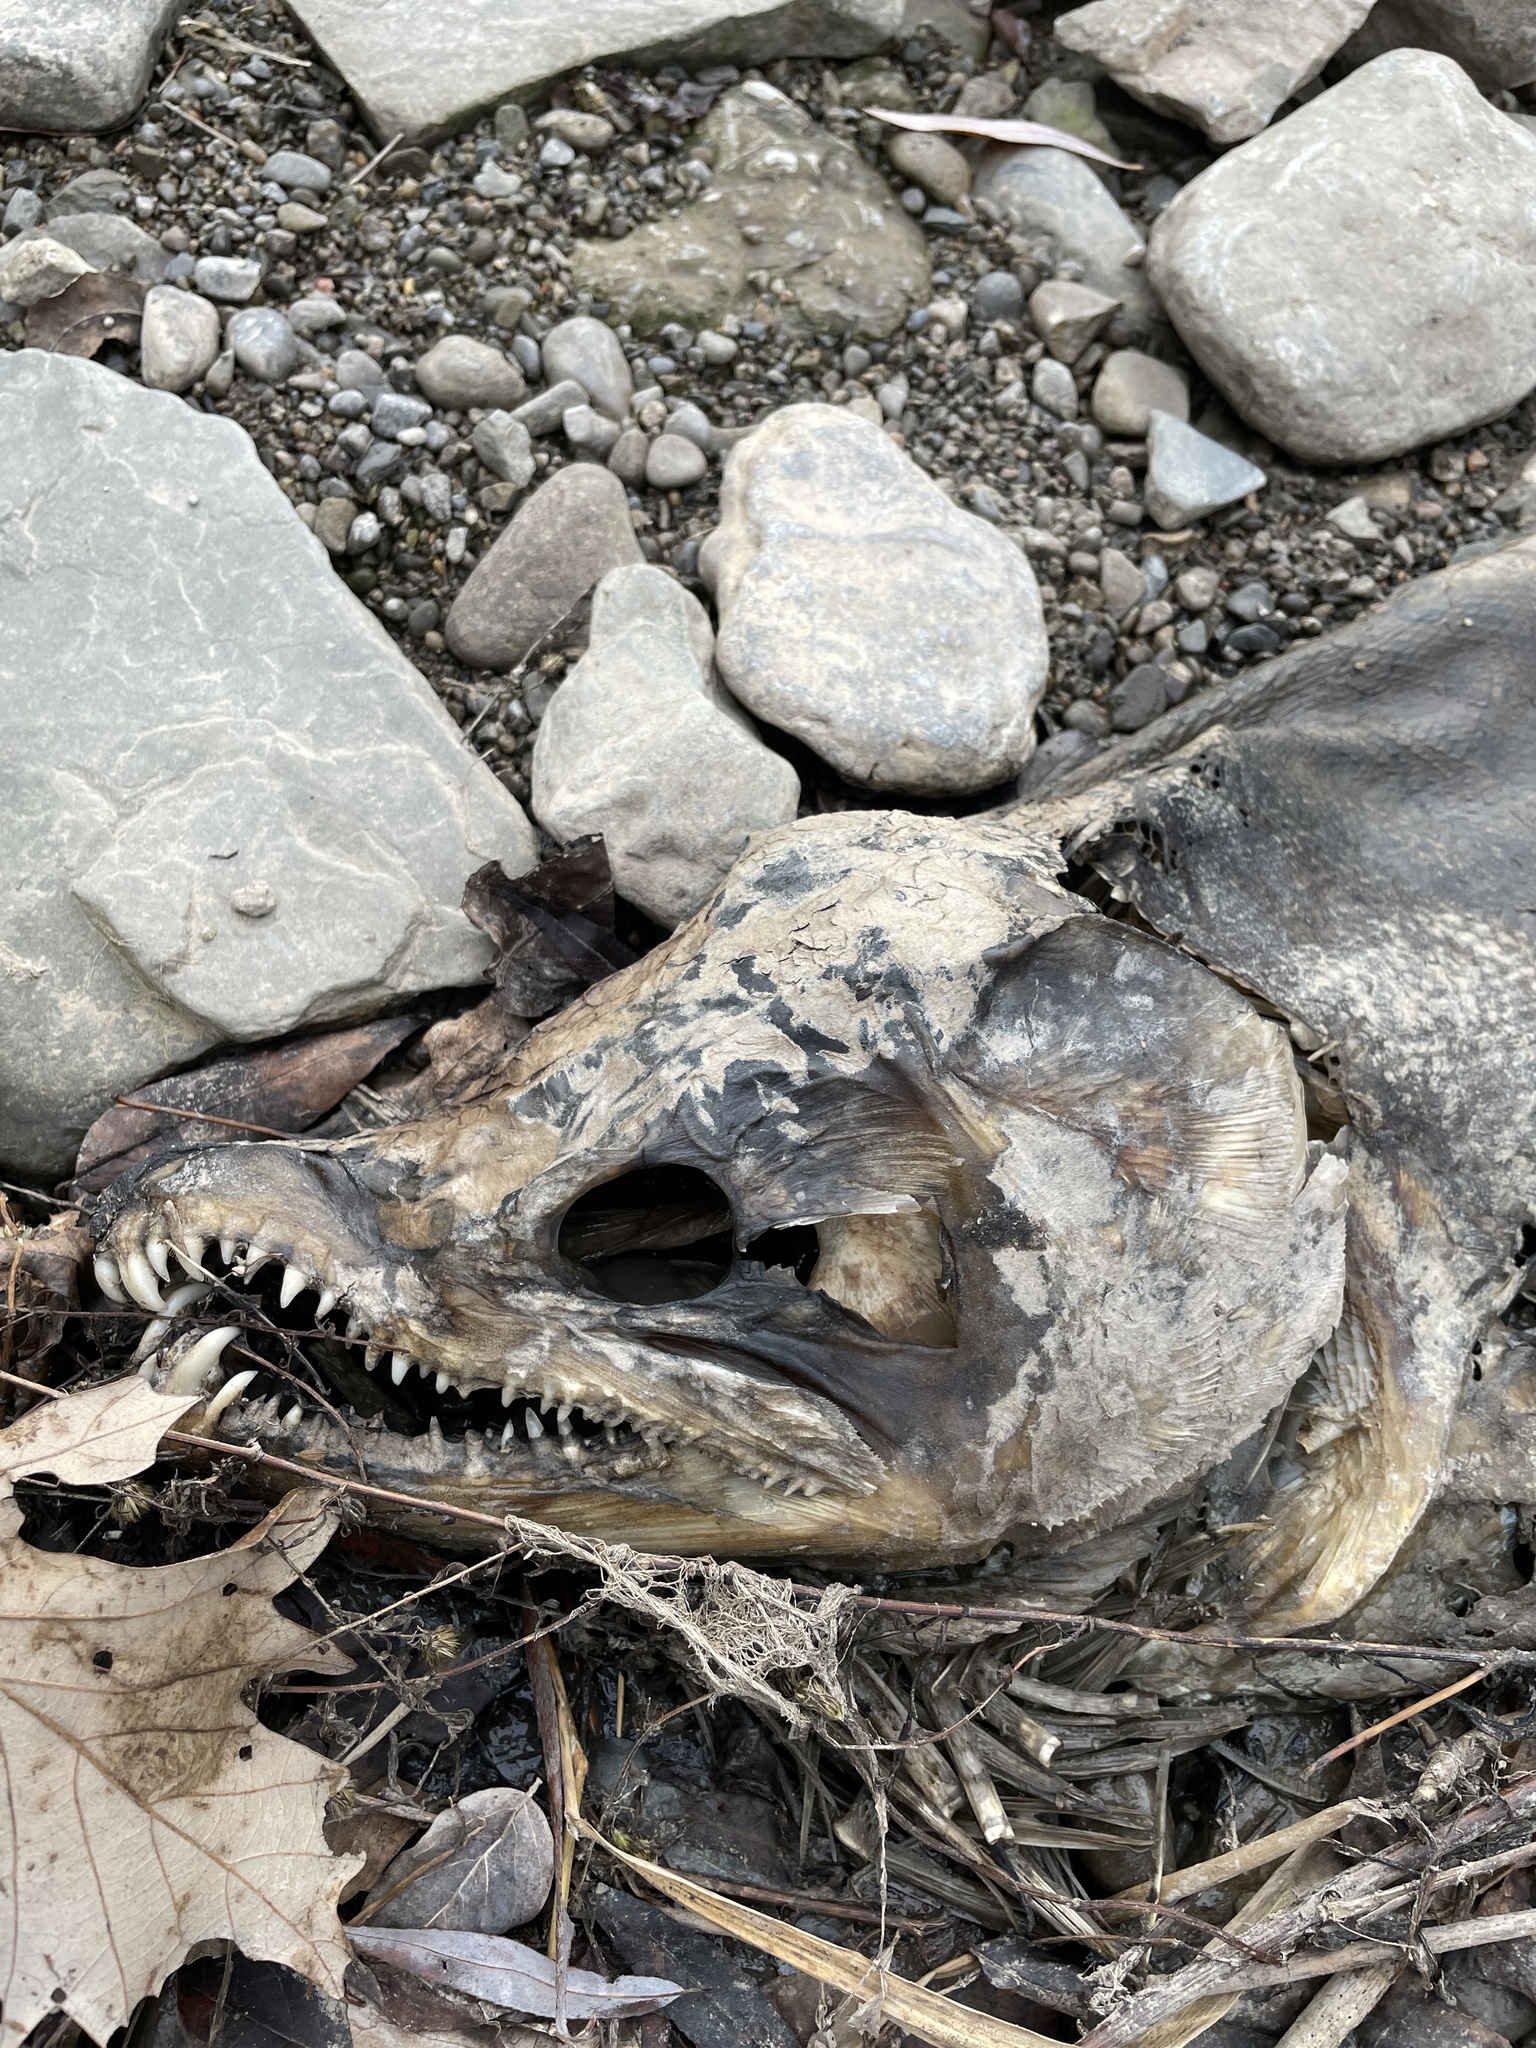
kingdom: Animalia
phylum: Chordata
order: Salmoniformes
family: Salmonidae
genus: Oncorhynchus
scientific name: Oncorhynchus tshawytscha
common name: Chinook salmon
